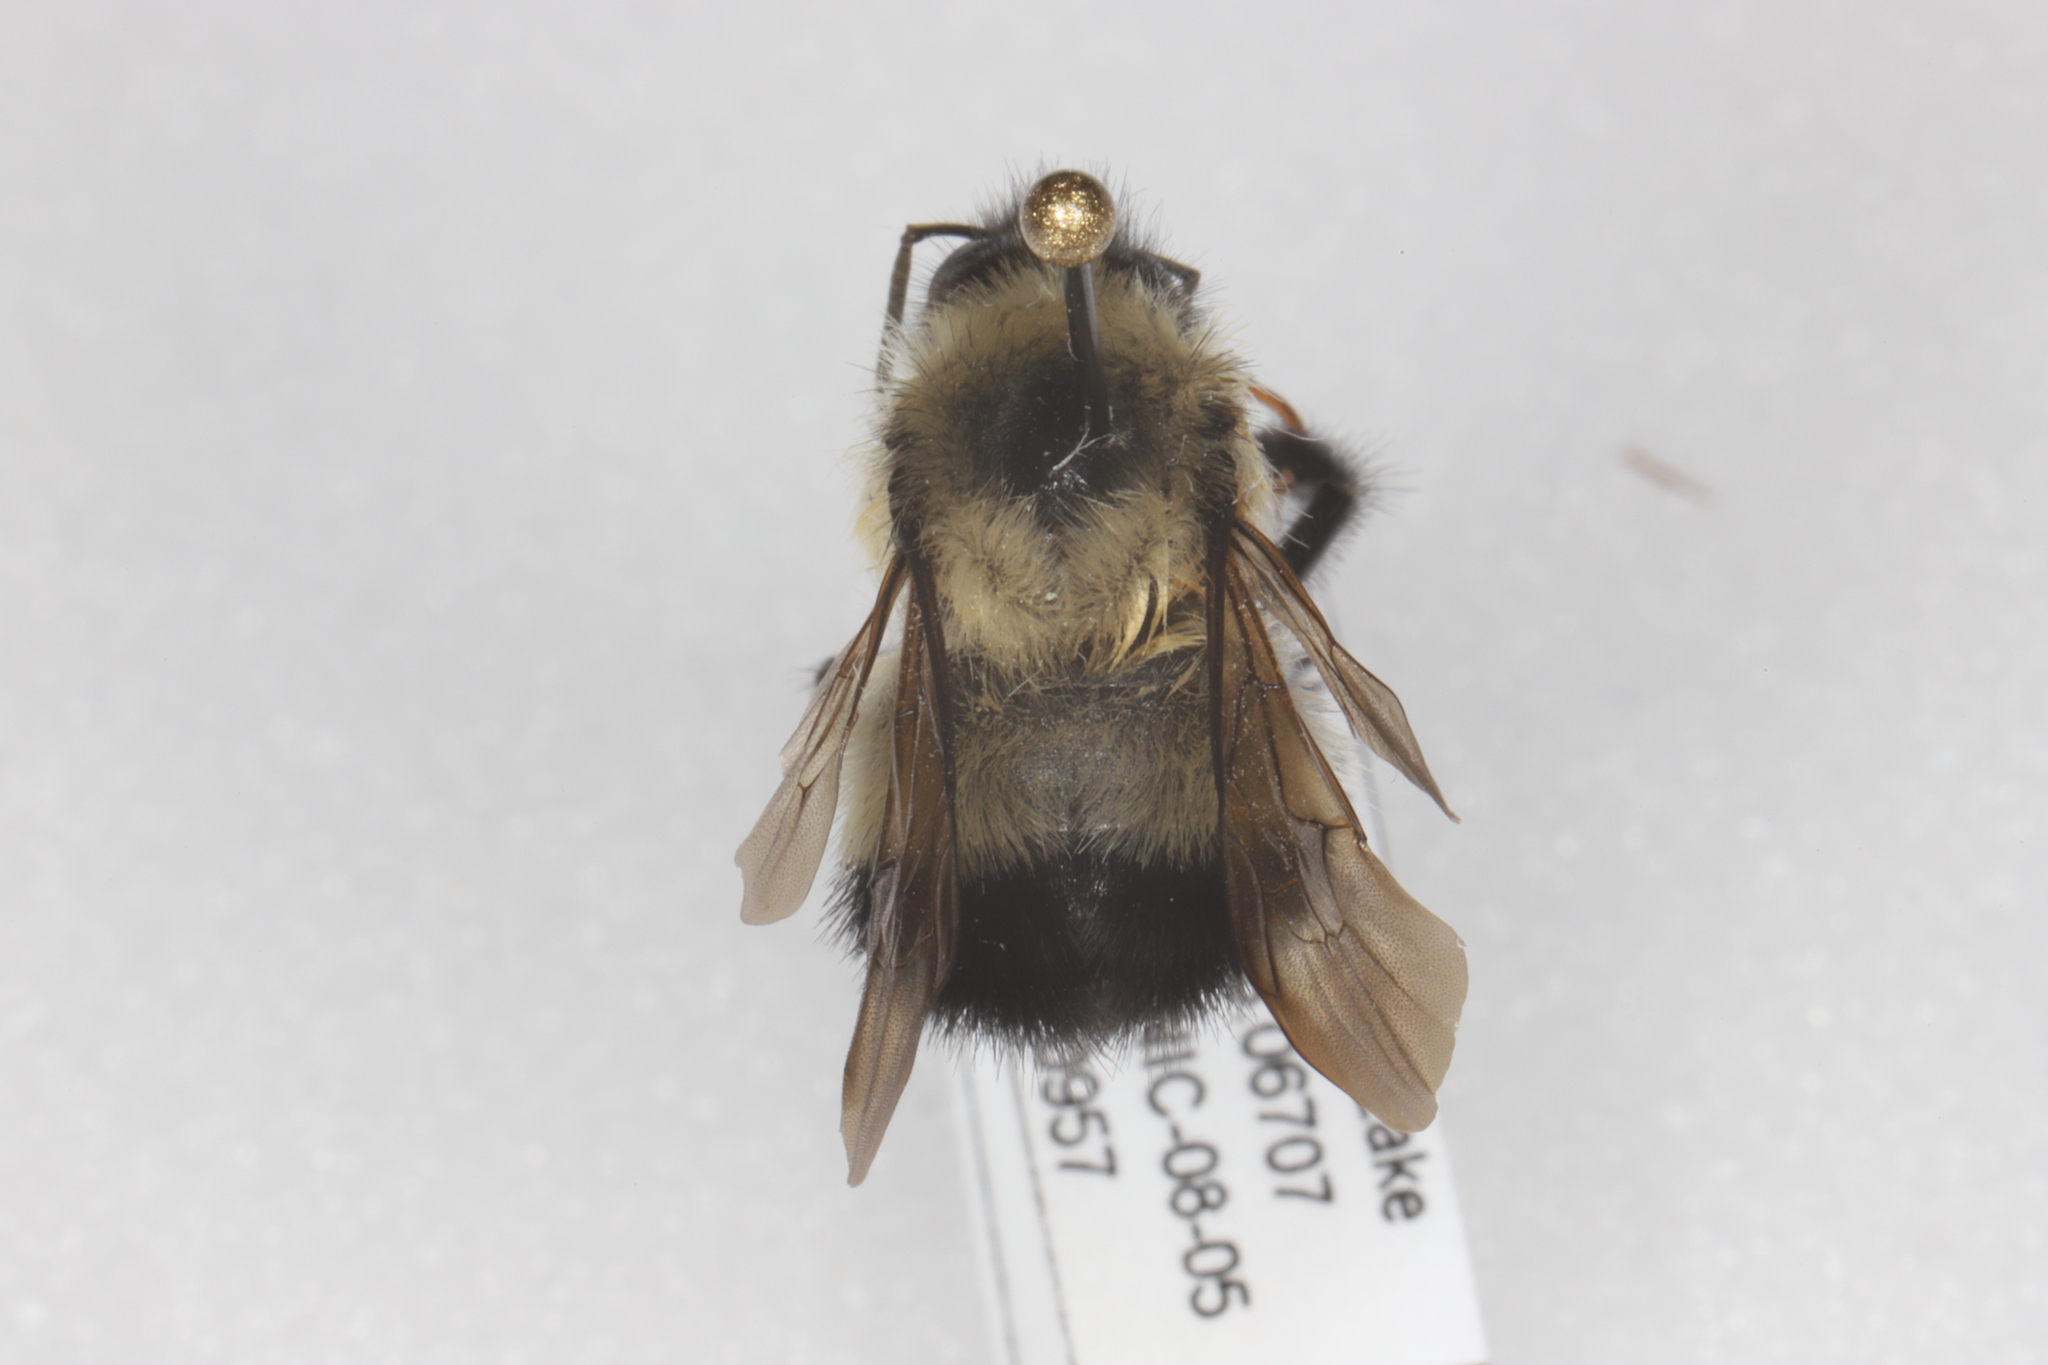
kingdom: Animalia
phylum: Arthropoda
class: Insecta
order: Hymenoptera
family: Apidae
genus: Bombus
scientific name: Bombus vagans
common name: Half-black bumble bee
